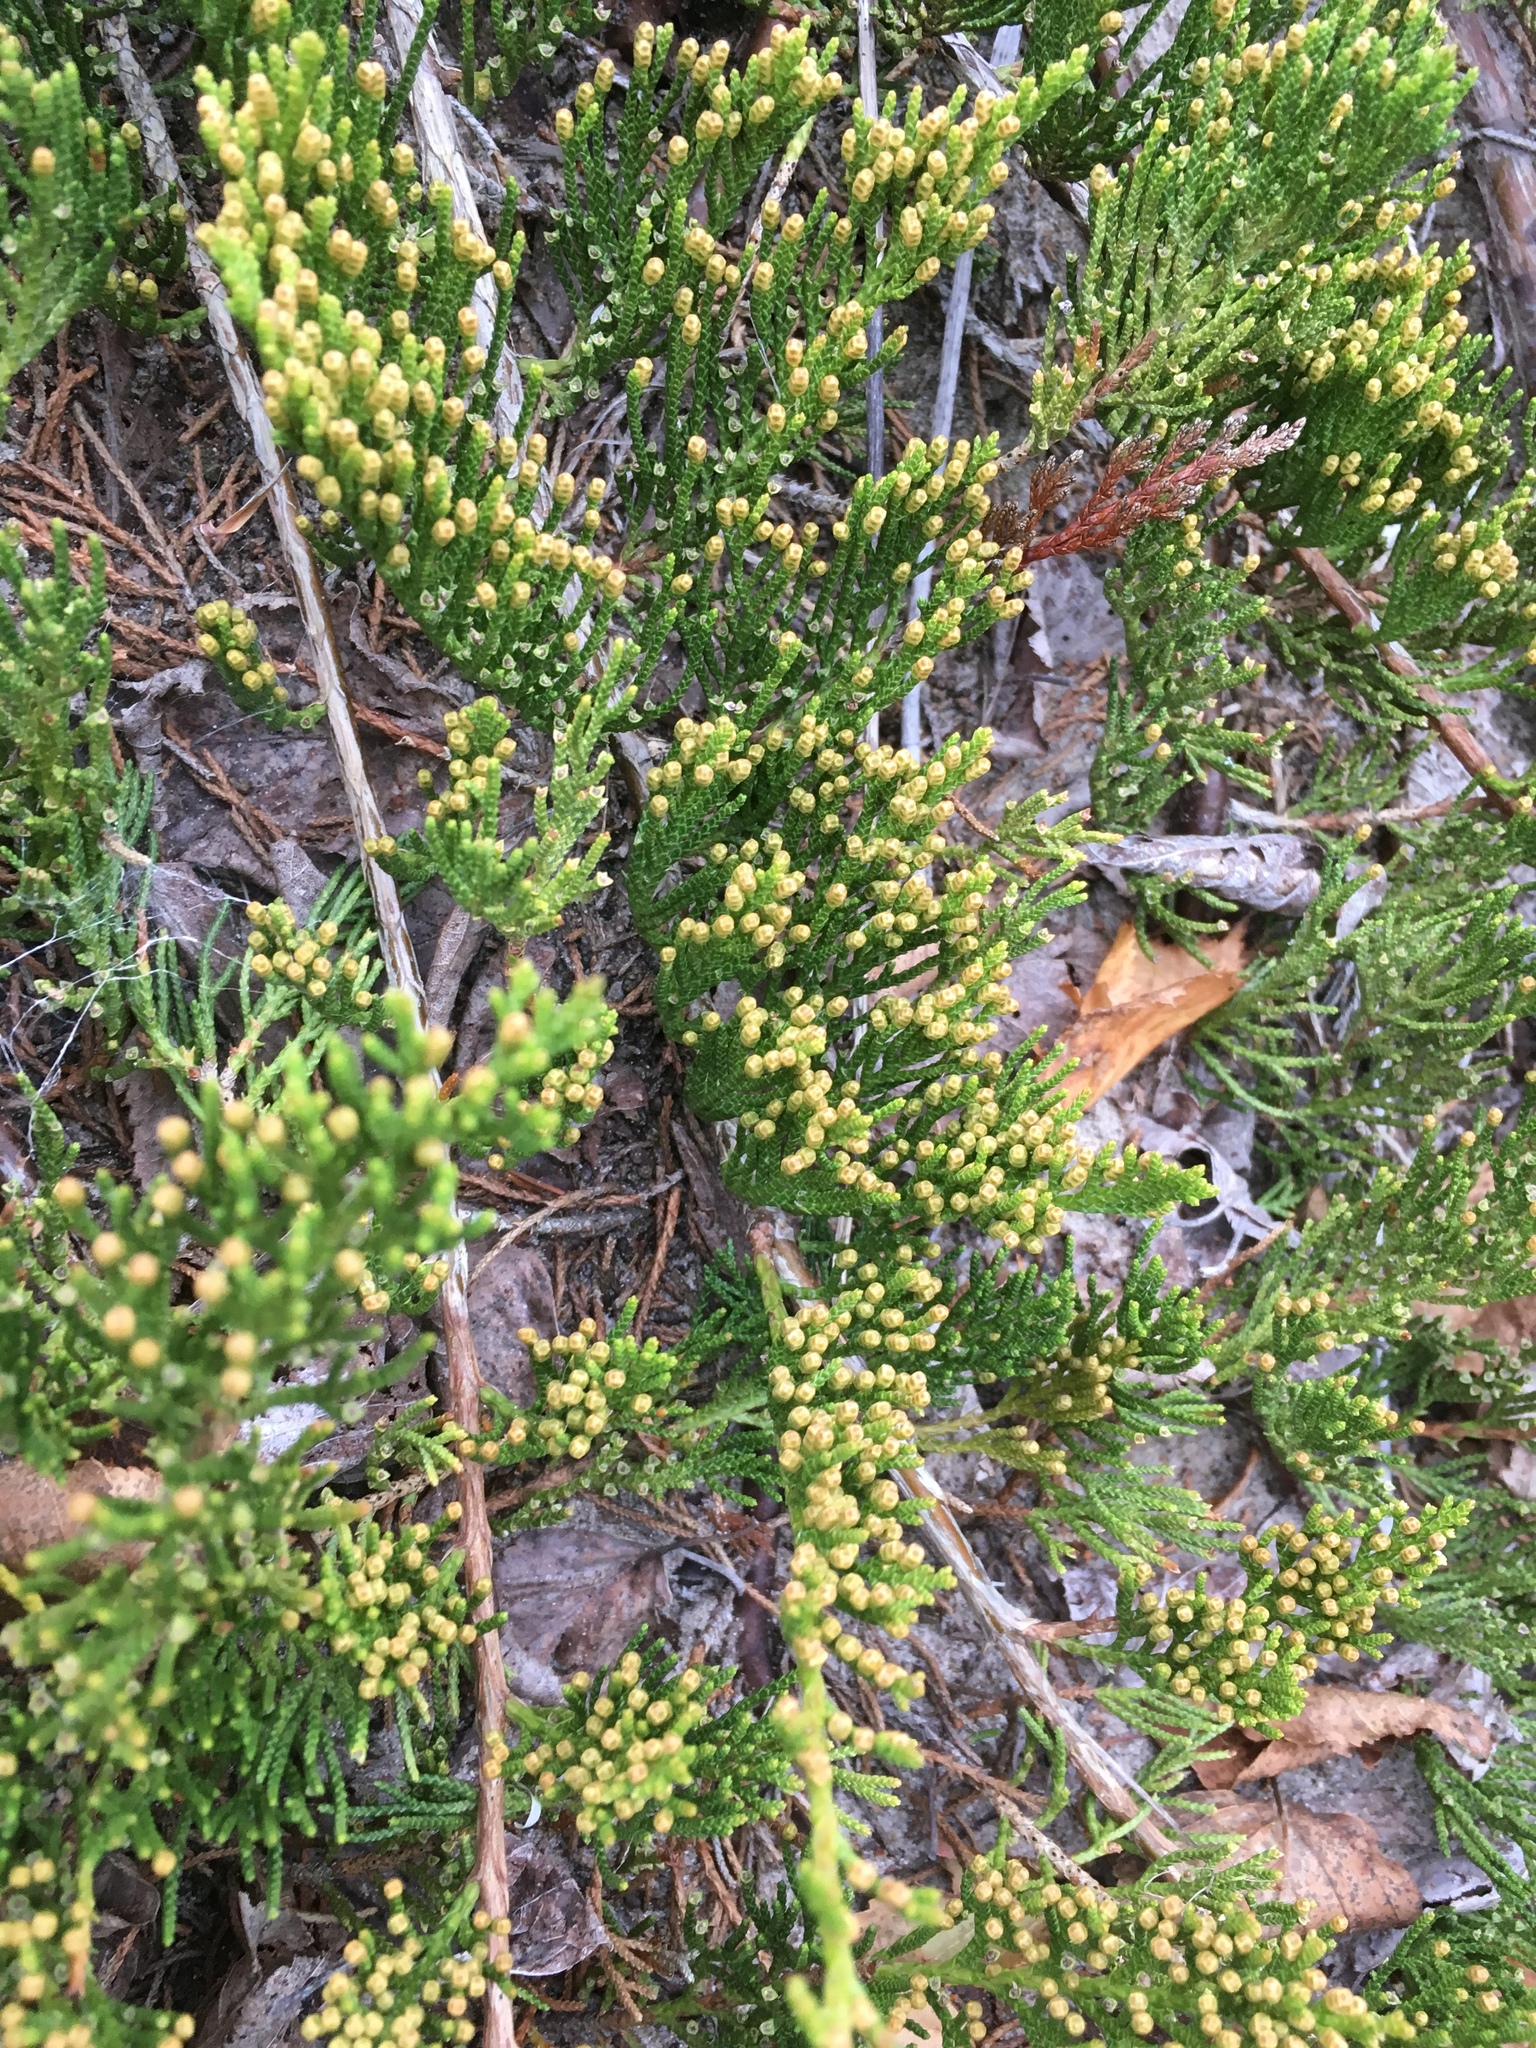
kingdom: Plantae
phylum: Tracheophyta
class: Pinopsida
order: Pinales
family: Cupressaceae
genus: Juniperus
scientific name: Juniperus horizontalis
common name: Creeping juniper
